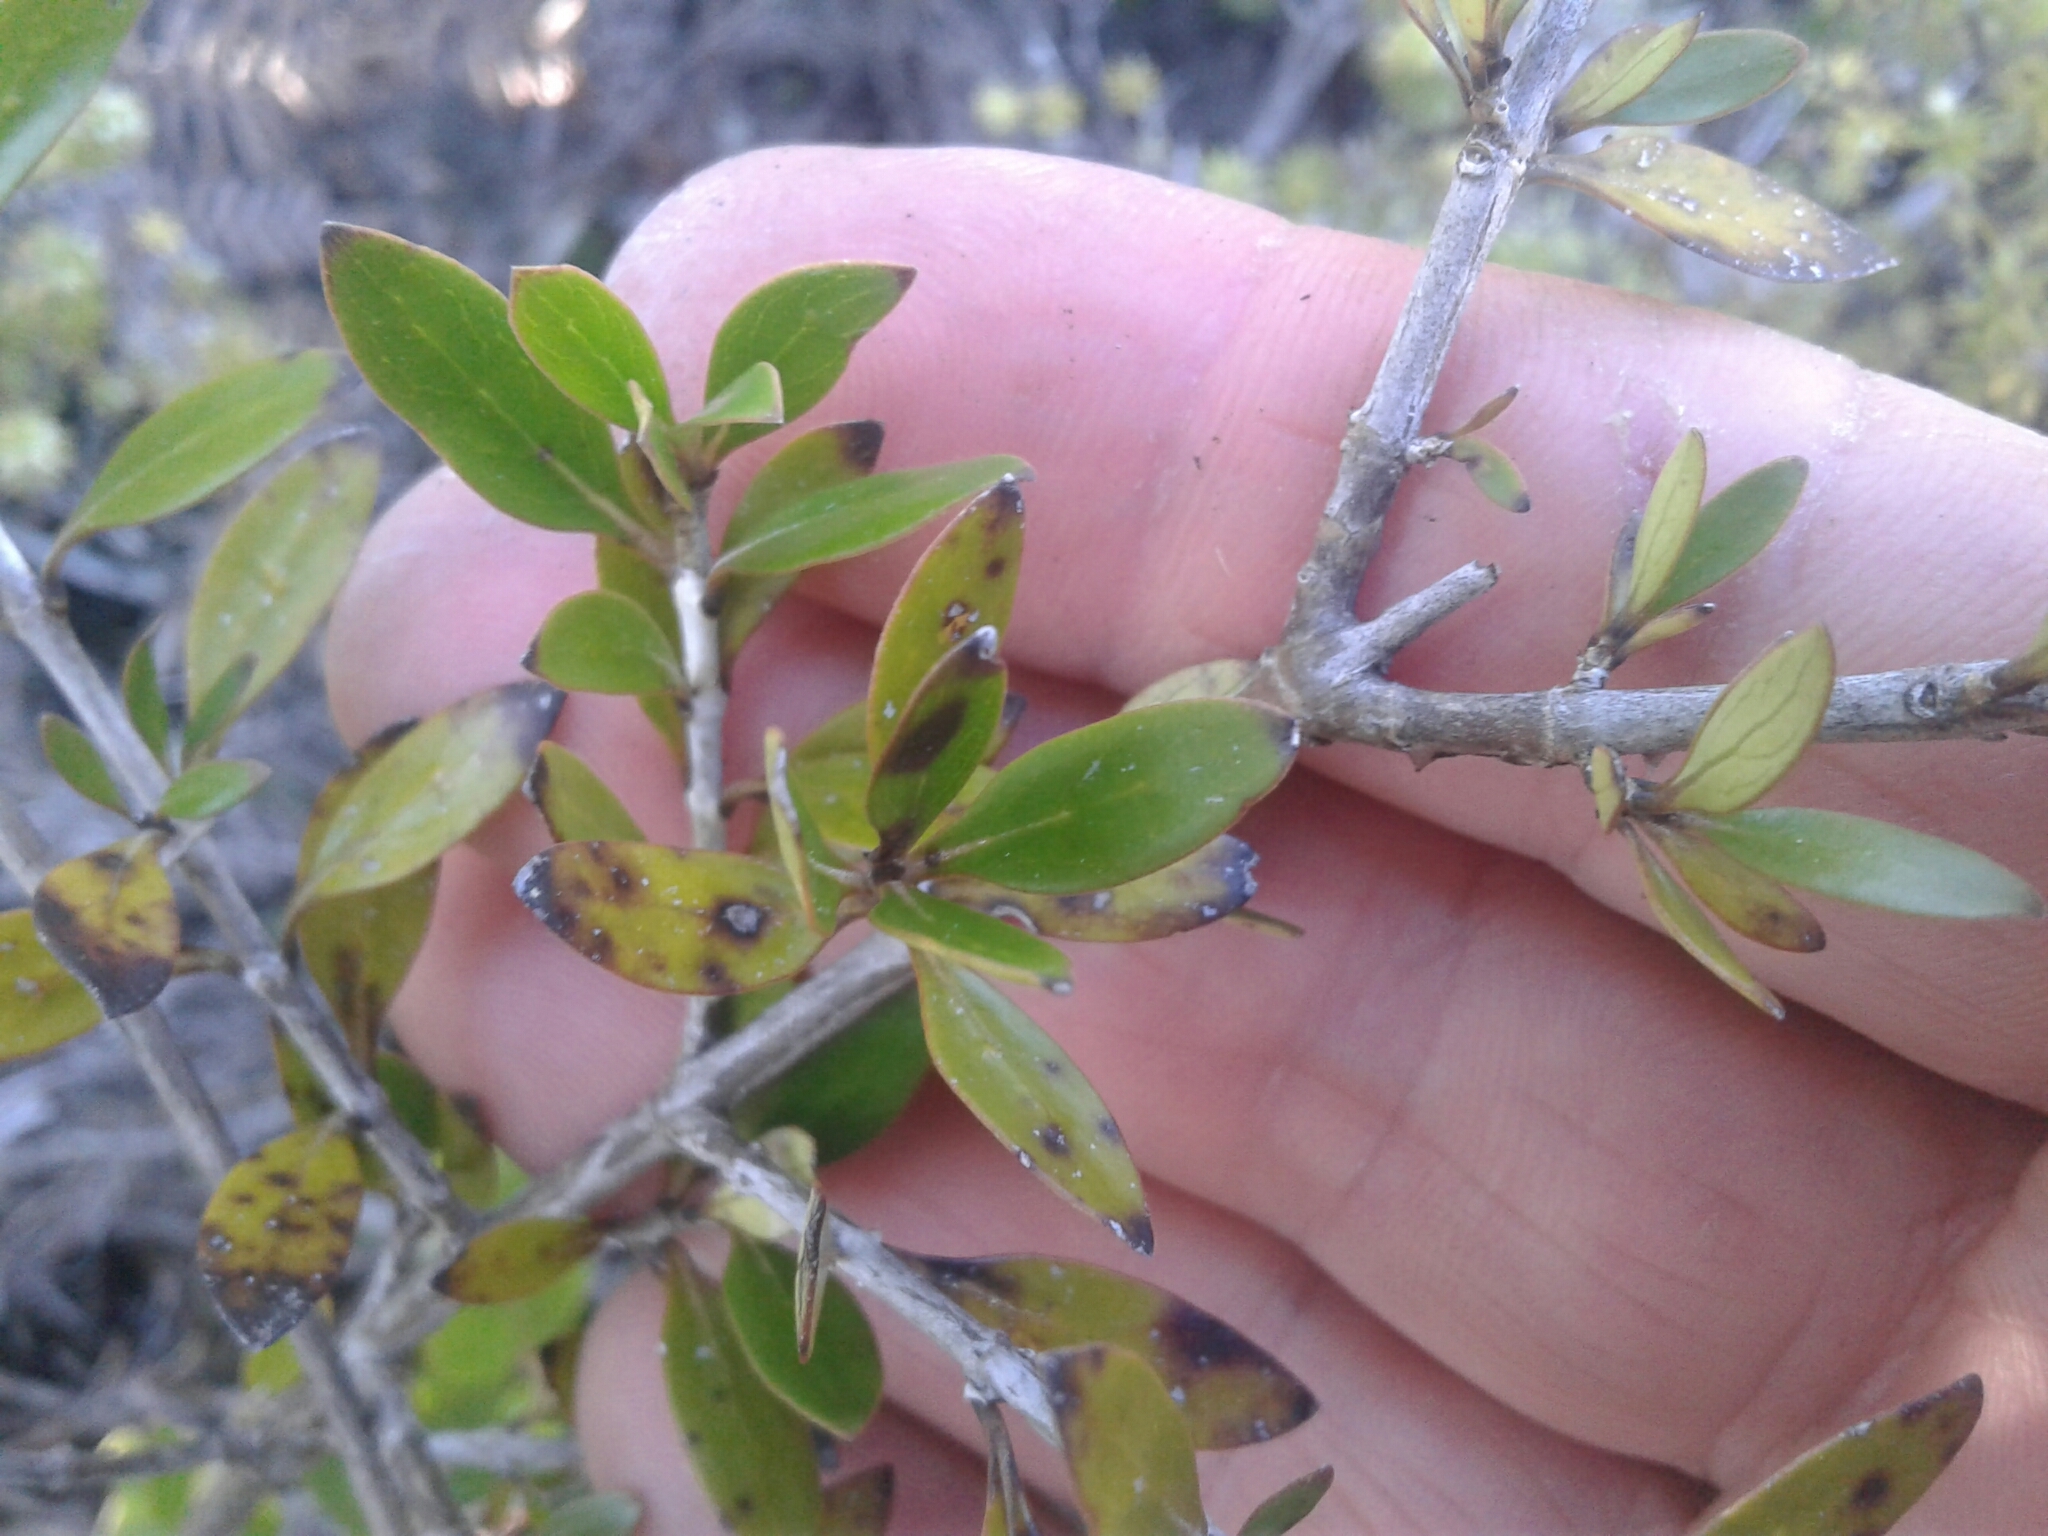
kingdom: Plantae
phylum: Tracheophyta
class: Magnoliopsida
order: Gentianales
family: Rubiaceae
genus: Coprosma
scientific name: Coprosma cunninghamii
